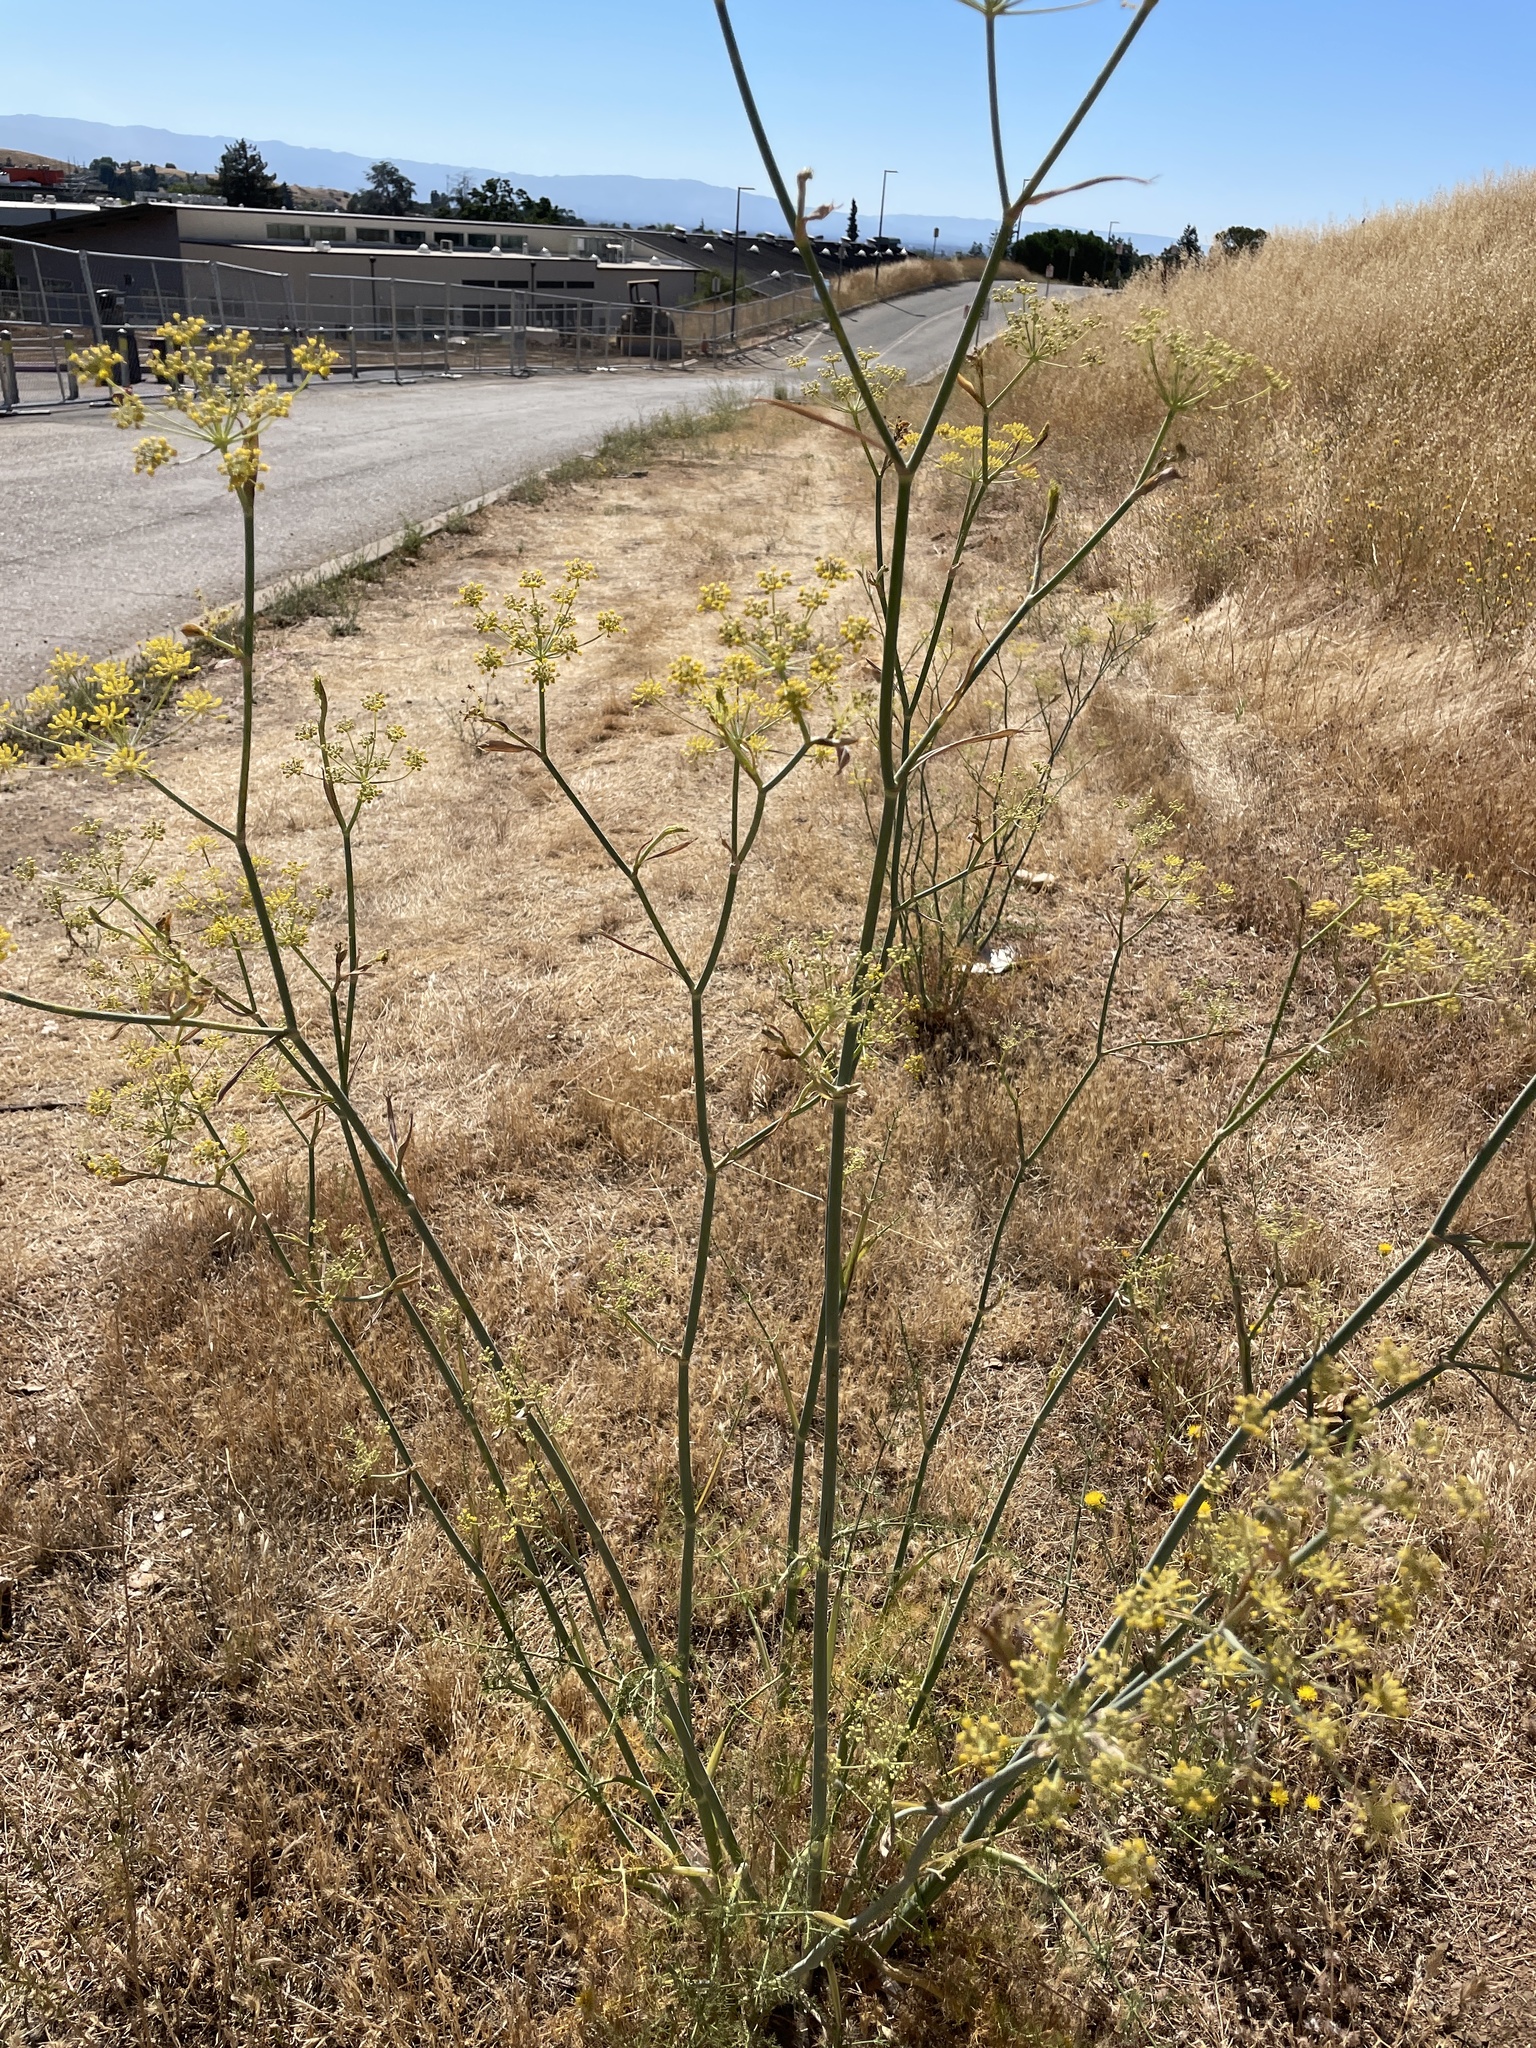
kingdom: Plantae
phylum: Tracheophyta
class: Magnoliopsida
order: Apiales
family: Apiaceae
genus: Foeniculum
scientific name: Foeniculum vulgare
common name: Fennel
